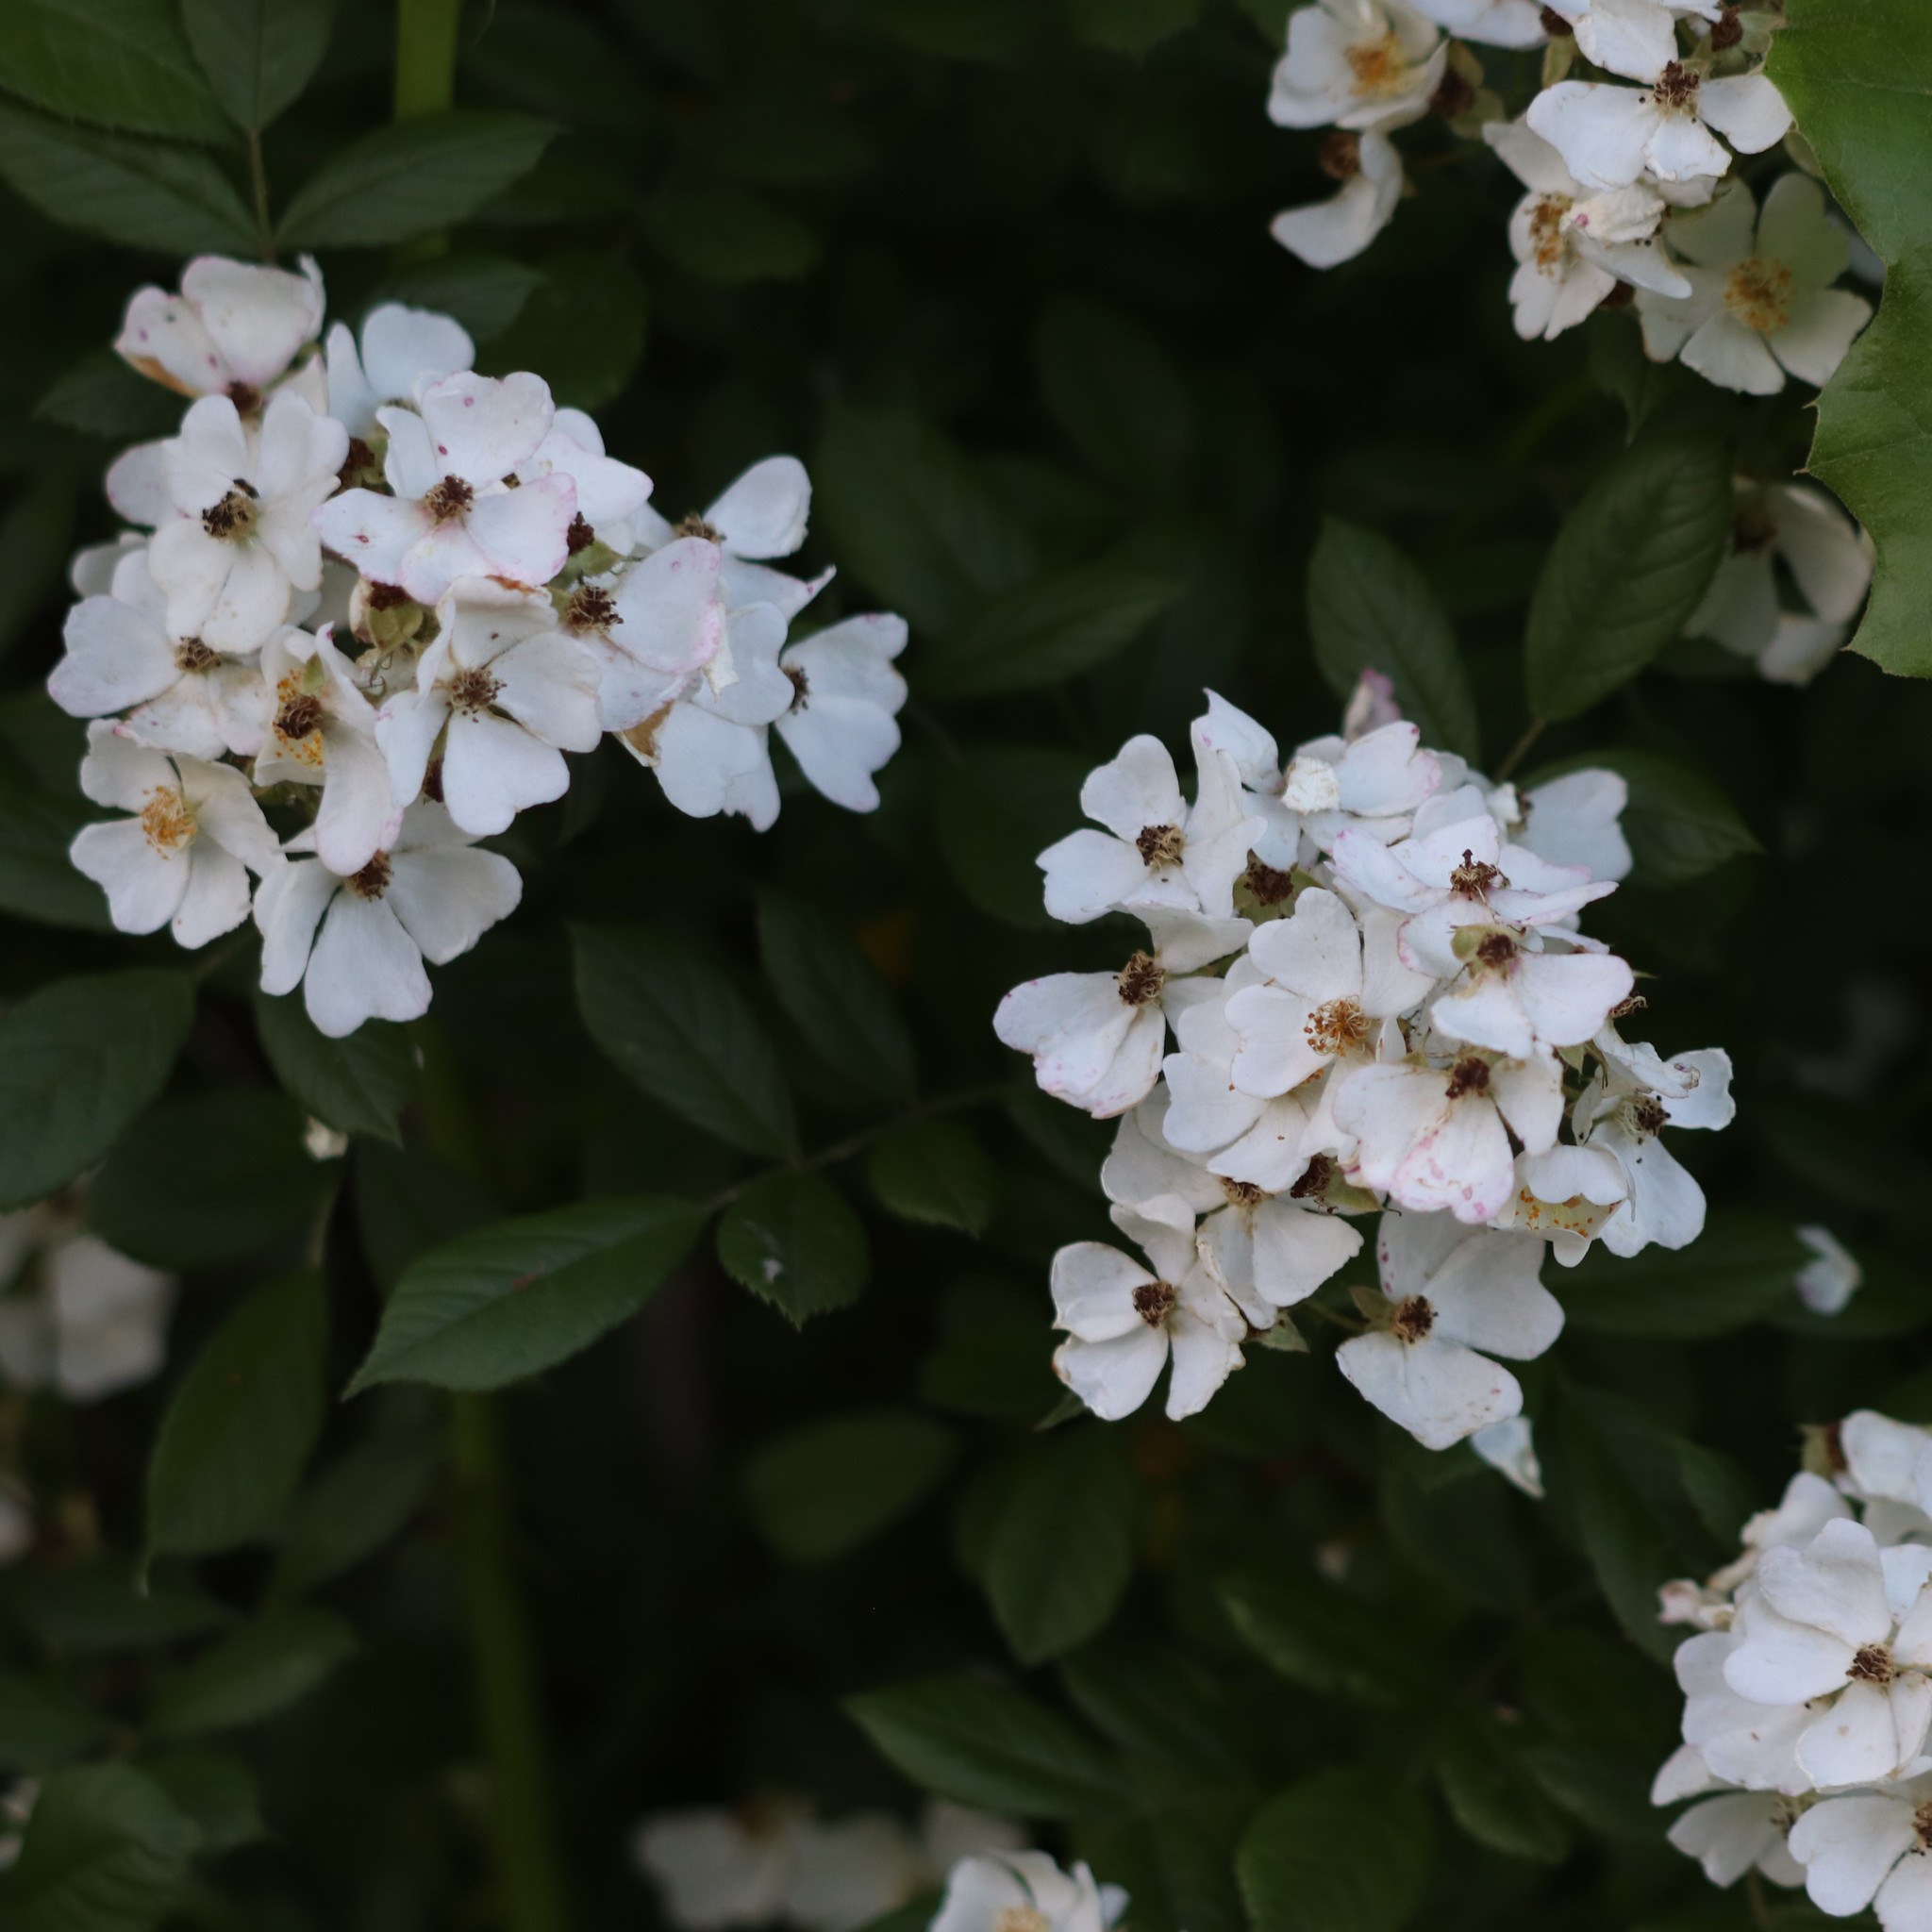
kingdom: Plantae
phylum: Tracheophyta
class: Magnoliopsida
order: Rosales
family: Rosaceae
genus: Rosa
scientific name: Rosa multiflora
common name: Multiflora rose
